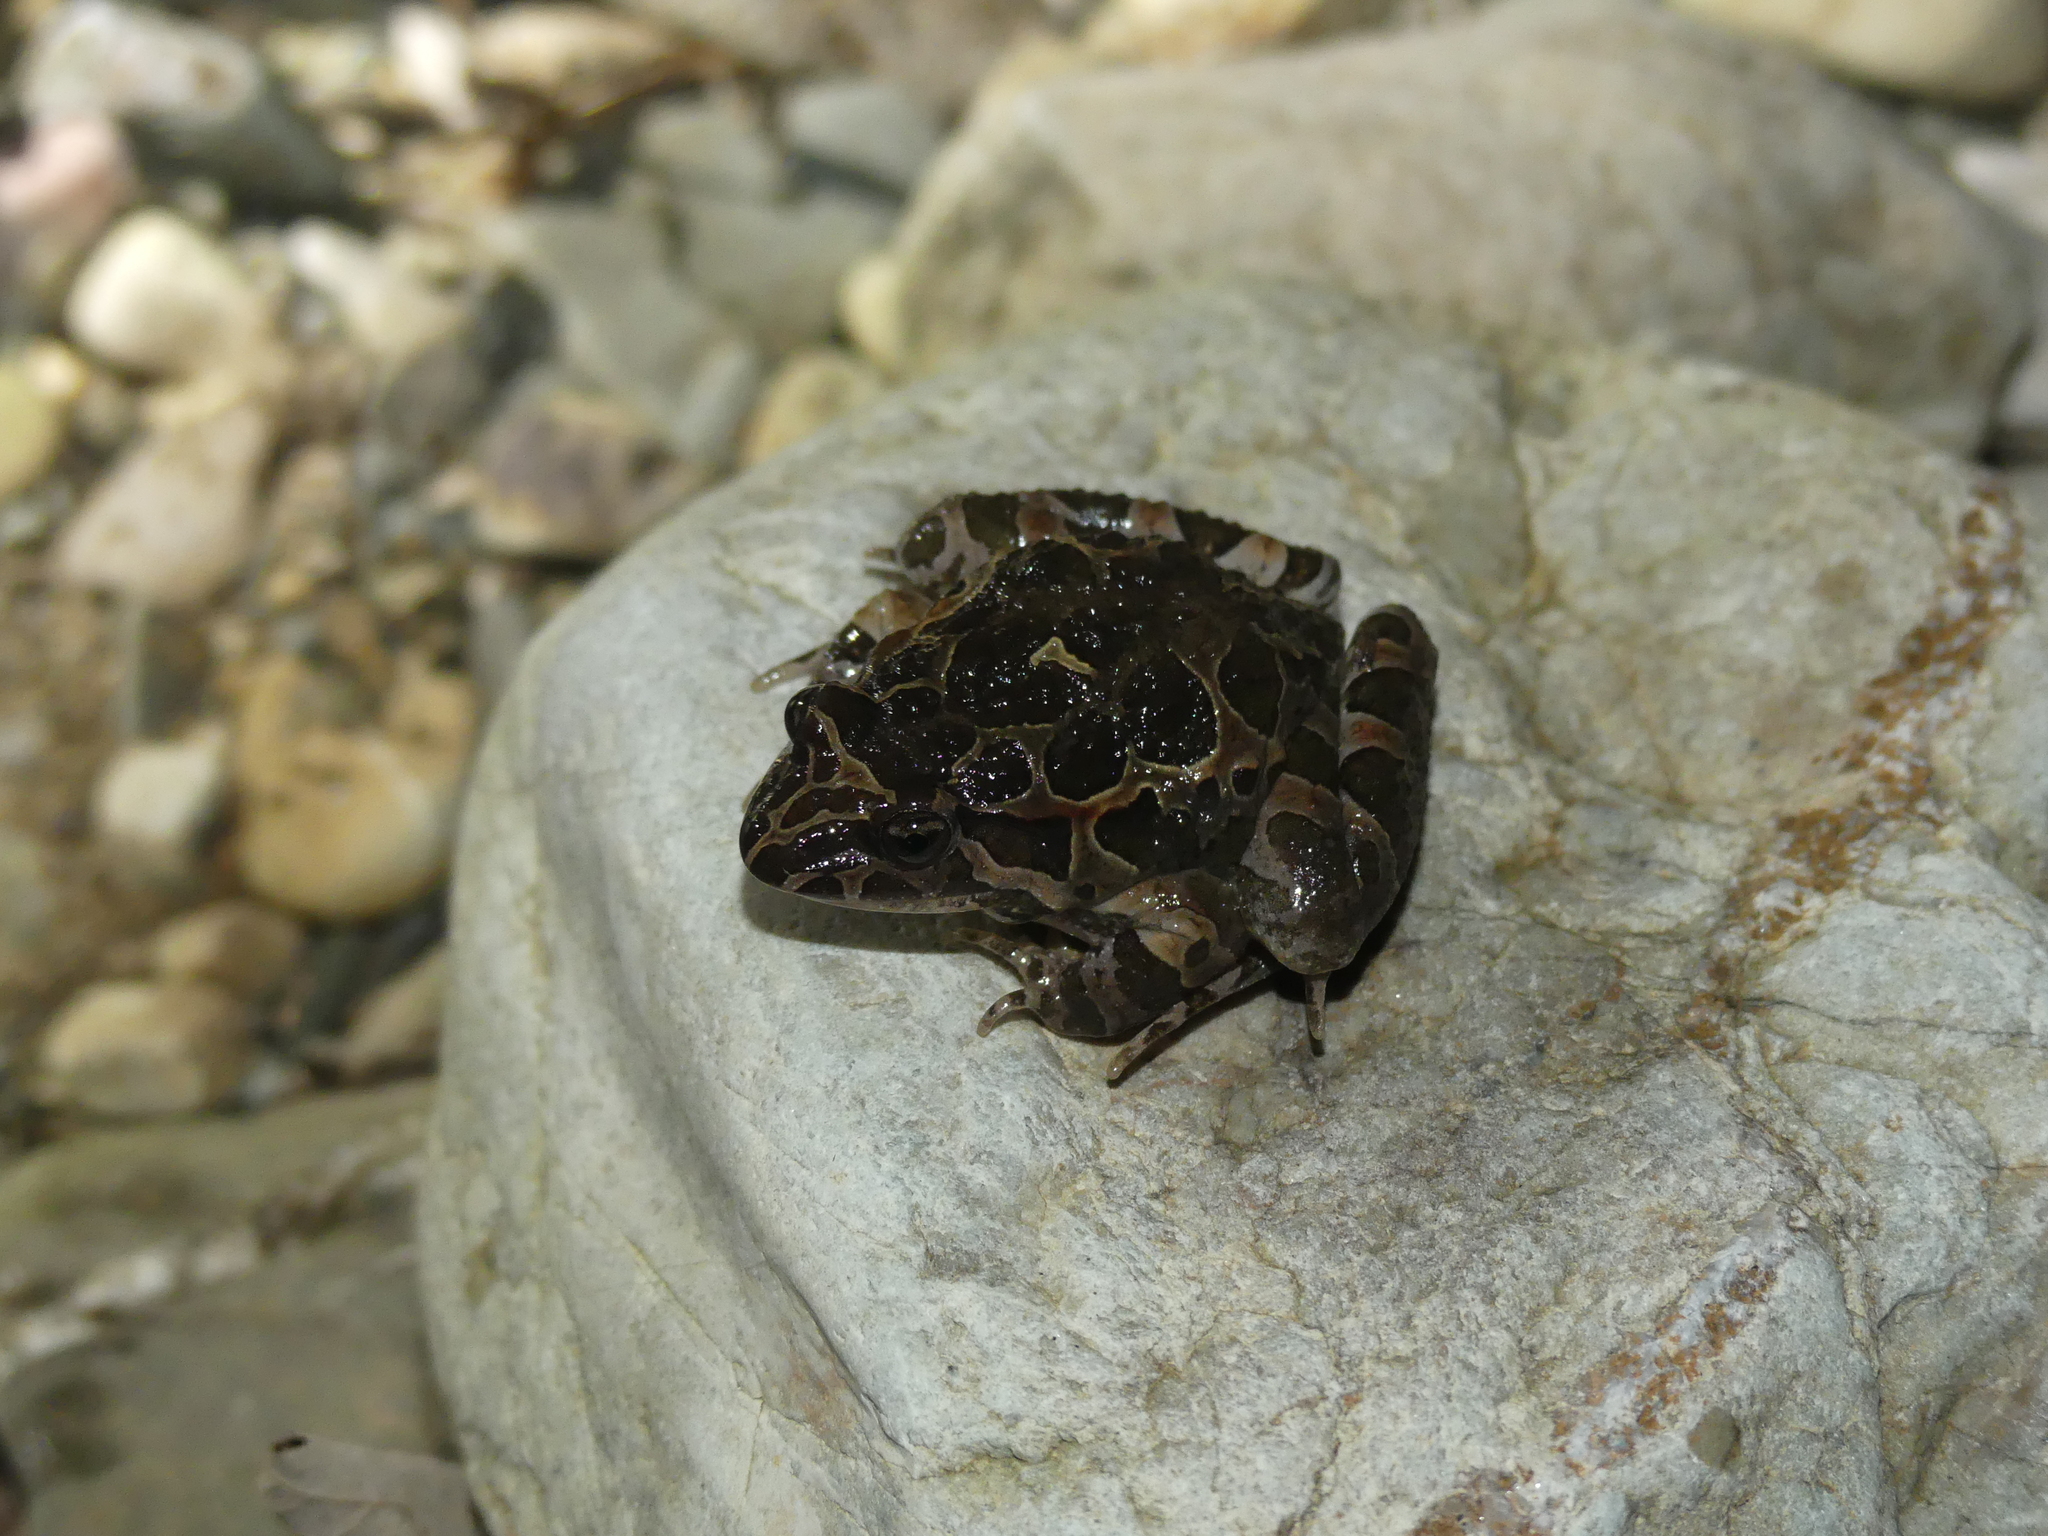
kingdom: Animalia
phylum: Chordata
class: Amphibia
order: Anura
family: Alytidae
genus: Discoglossus
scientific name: Discoglossus pictus
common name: Painted frog
